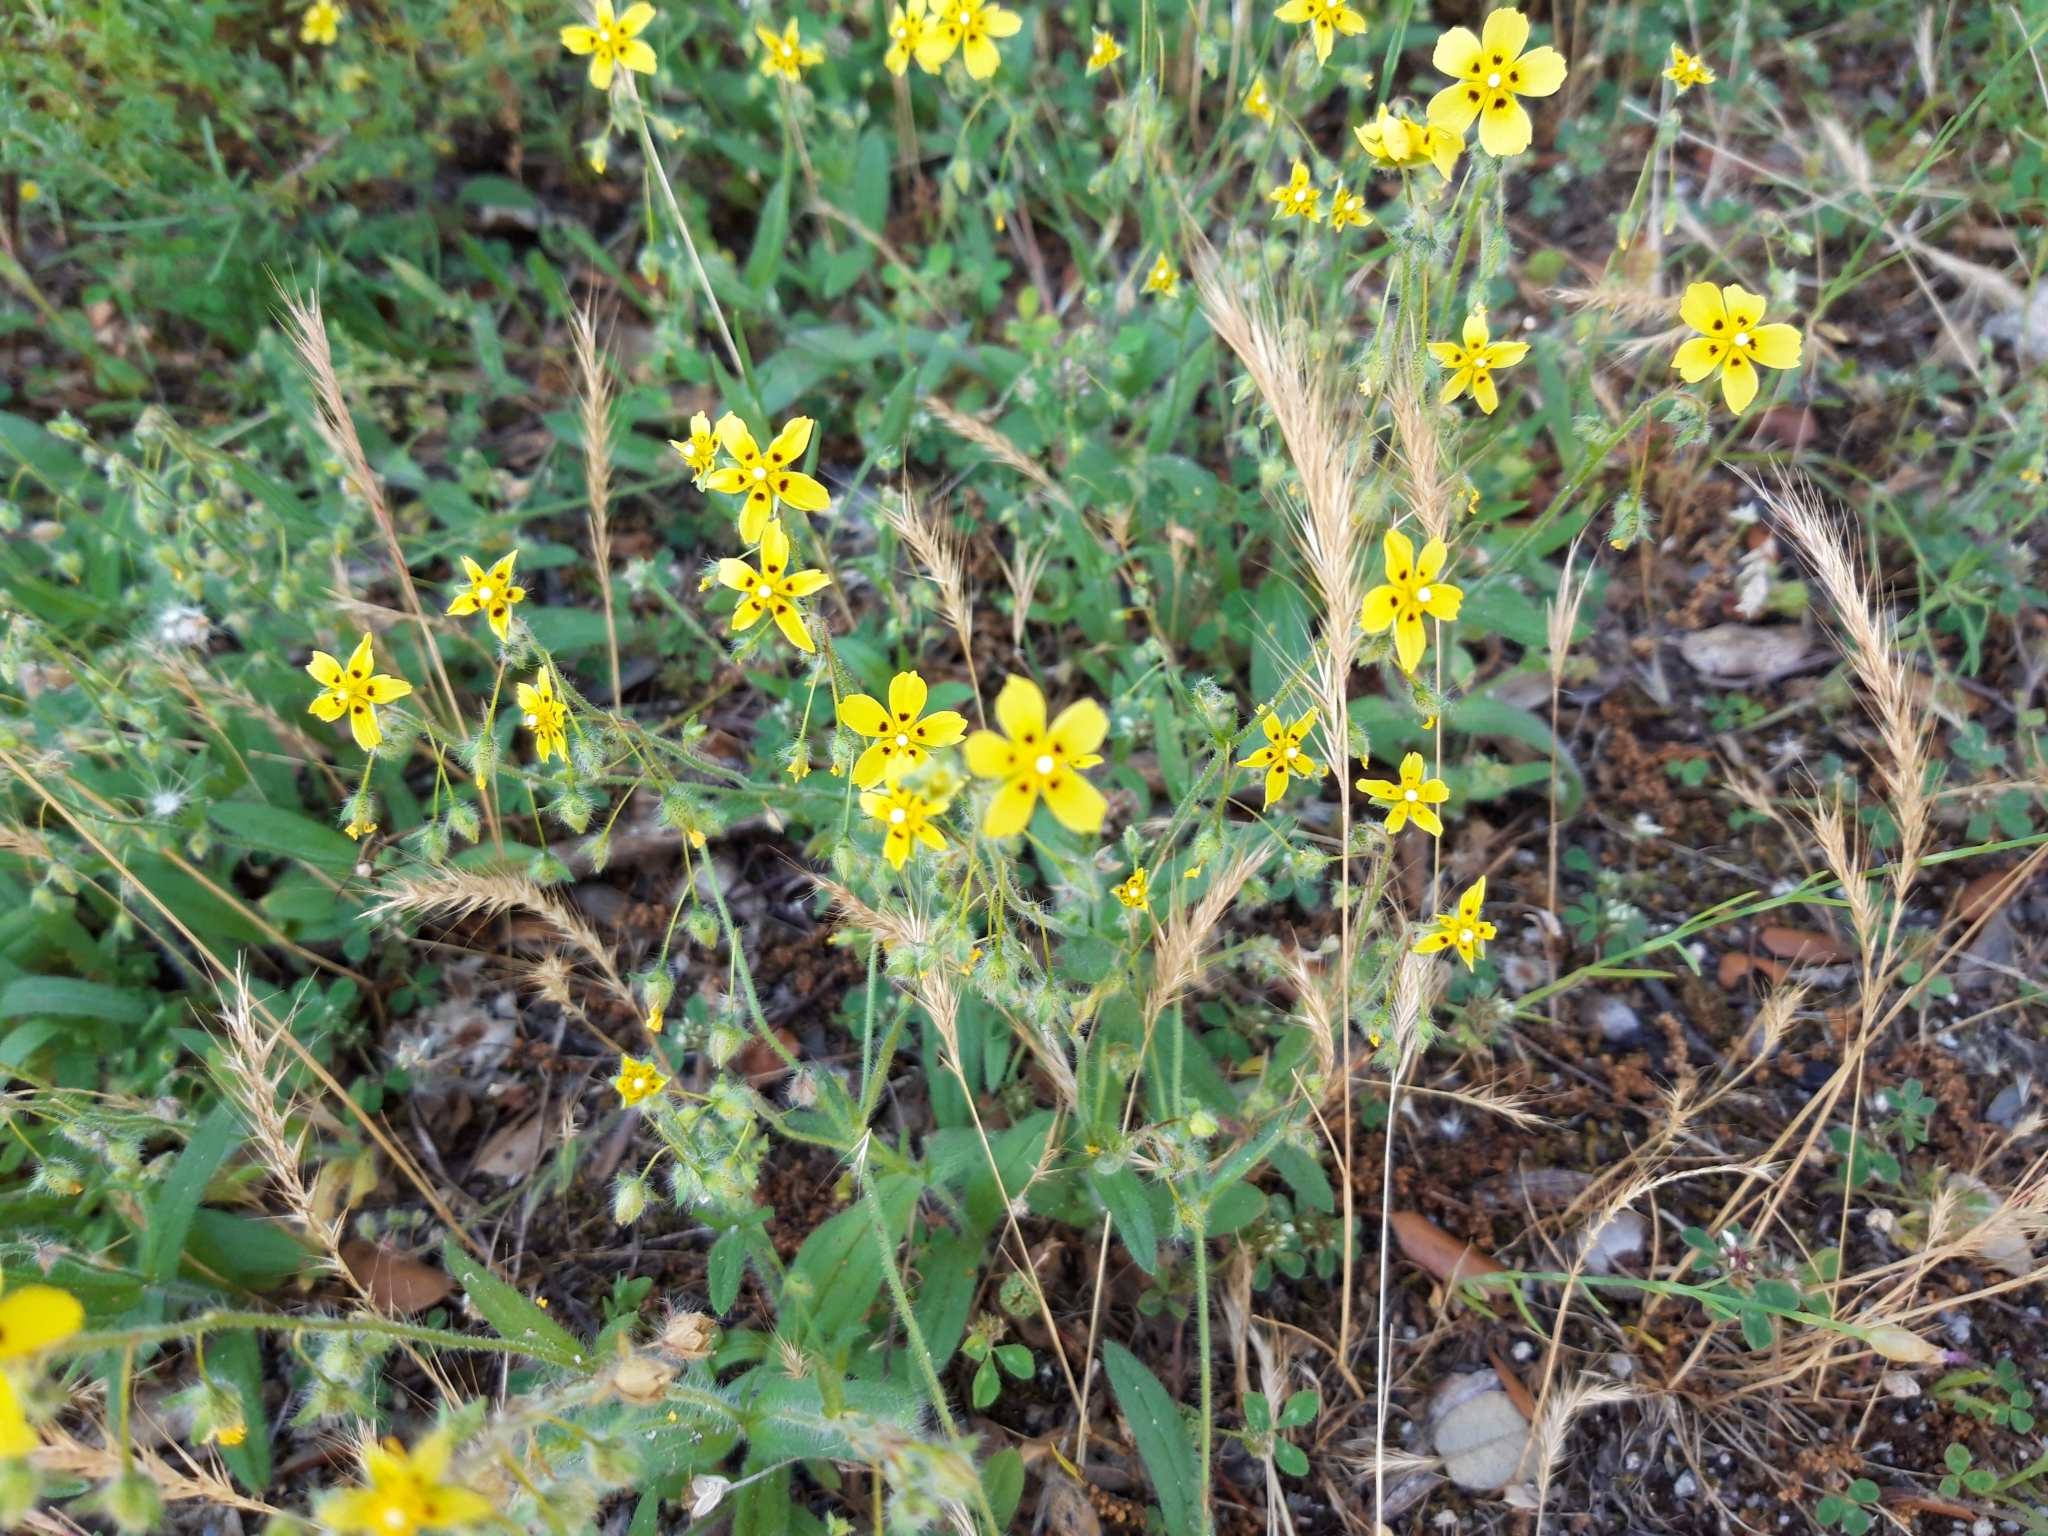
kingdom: Plantae
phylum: Tracheophyta
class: Magnoliopsida
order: Malvales
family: Cistaceae
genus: Tuberaria
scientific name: Tuberaria guttata
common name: Spotted rock-rose
